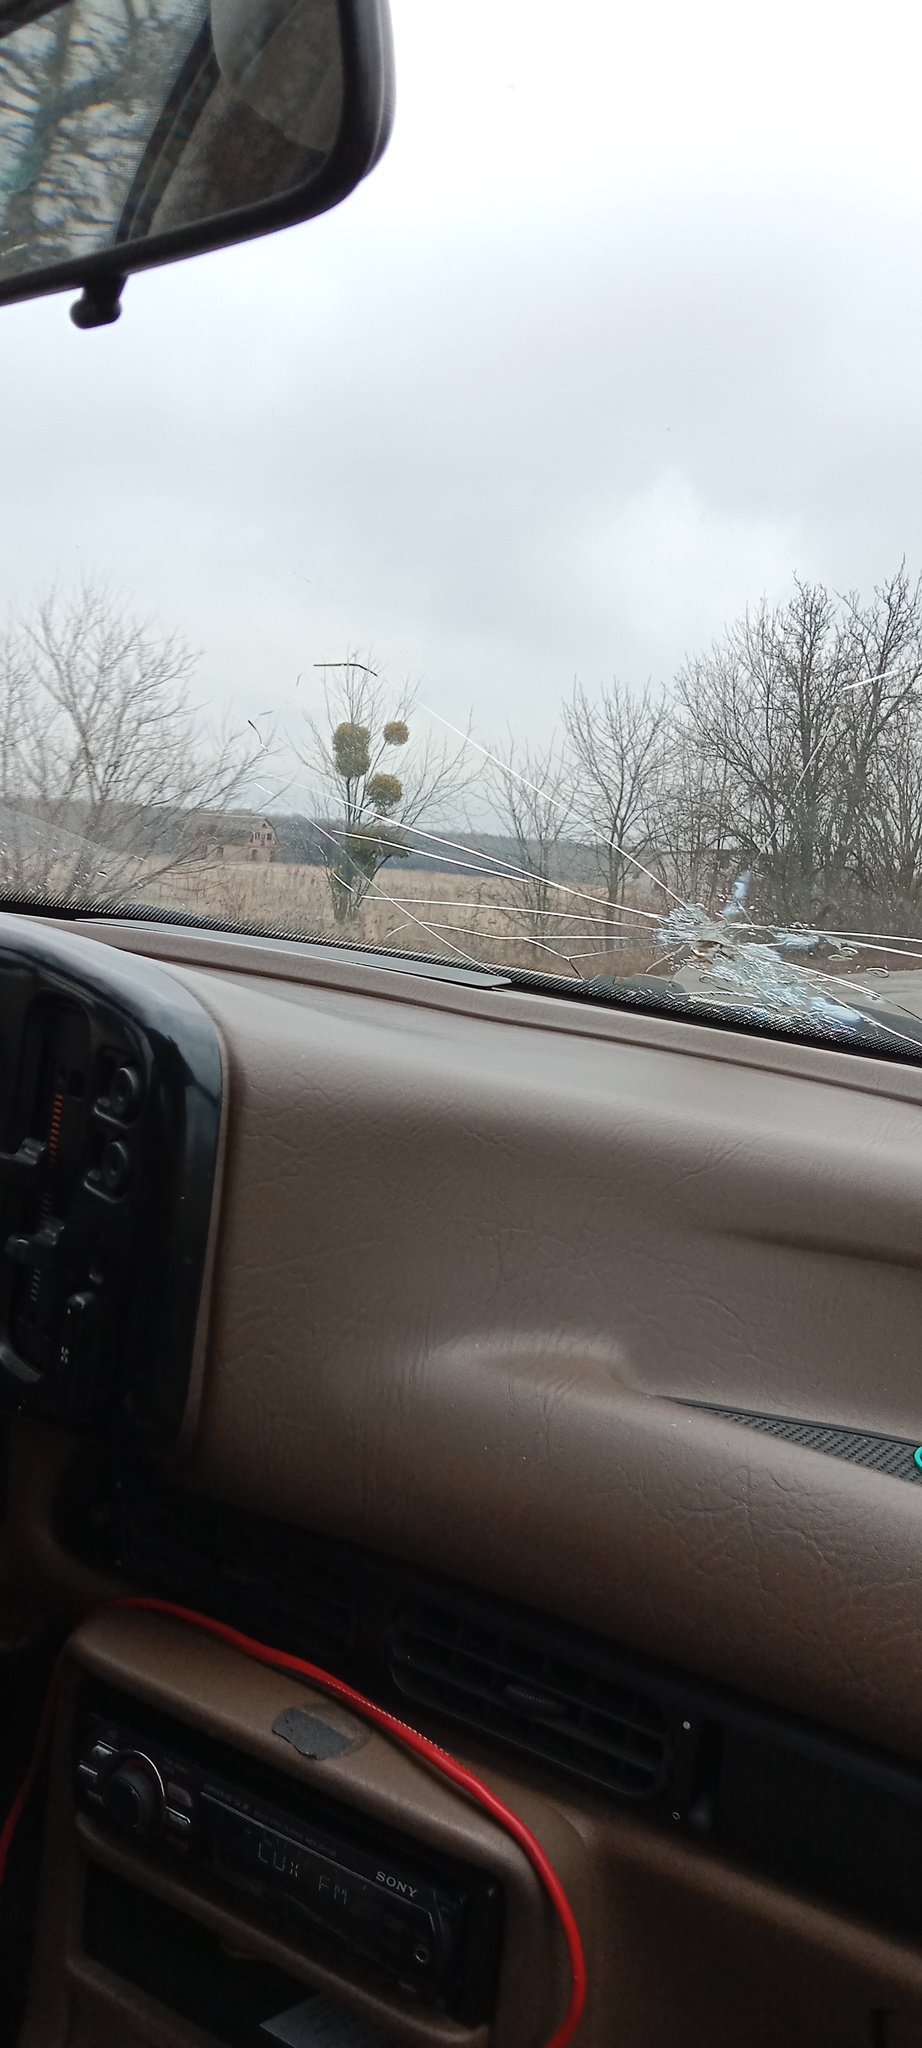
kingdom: Plantae
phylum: Tracheophyta
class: Magnoliopsida
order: Santalales
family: Viscaceae
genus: Viscum
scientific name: Viscum album
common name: Mistletoe
